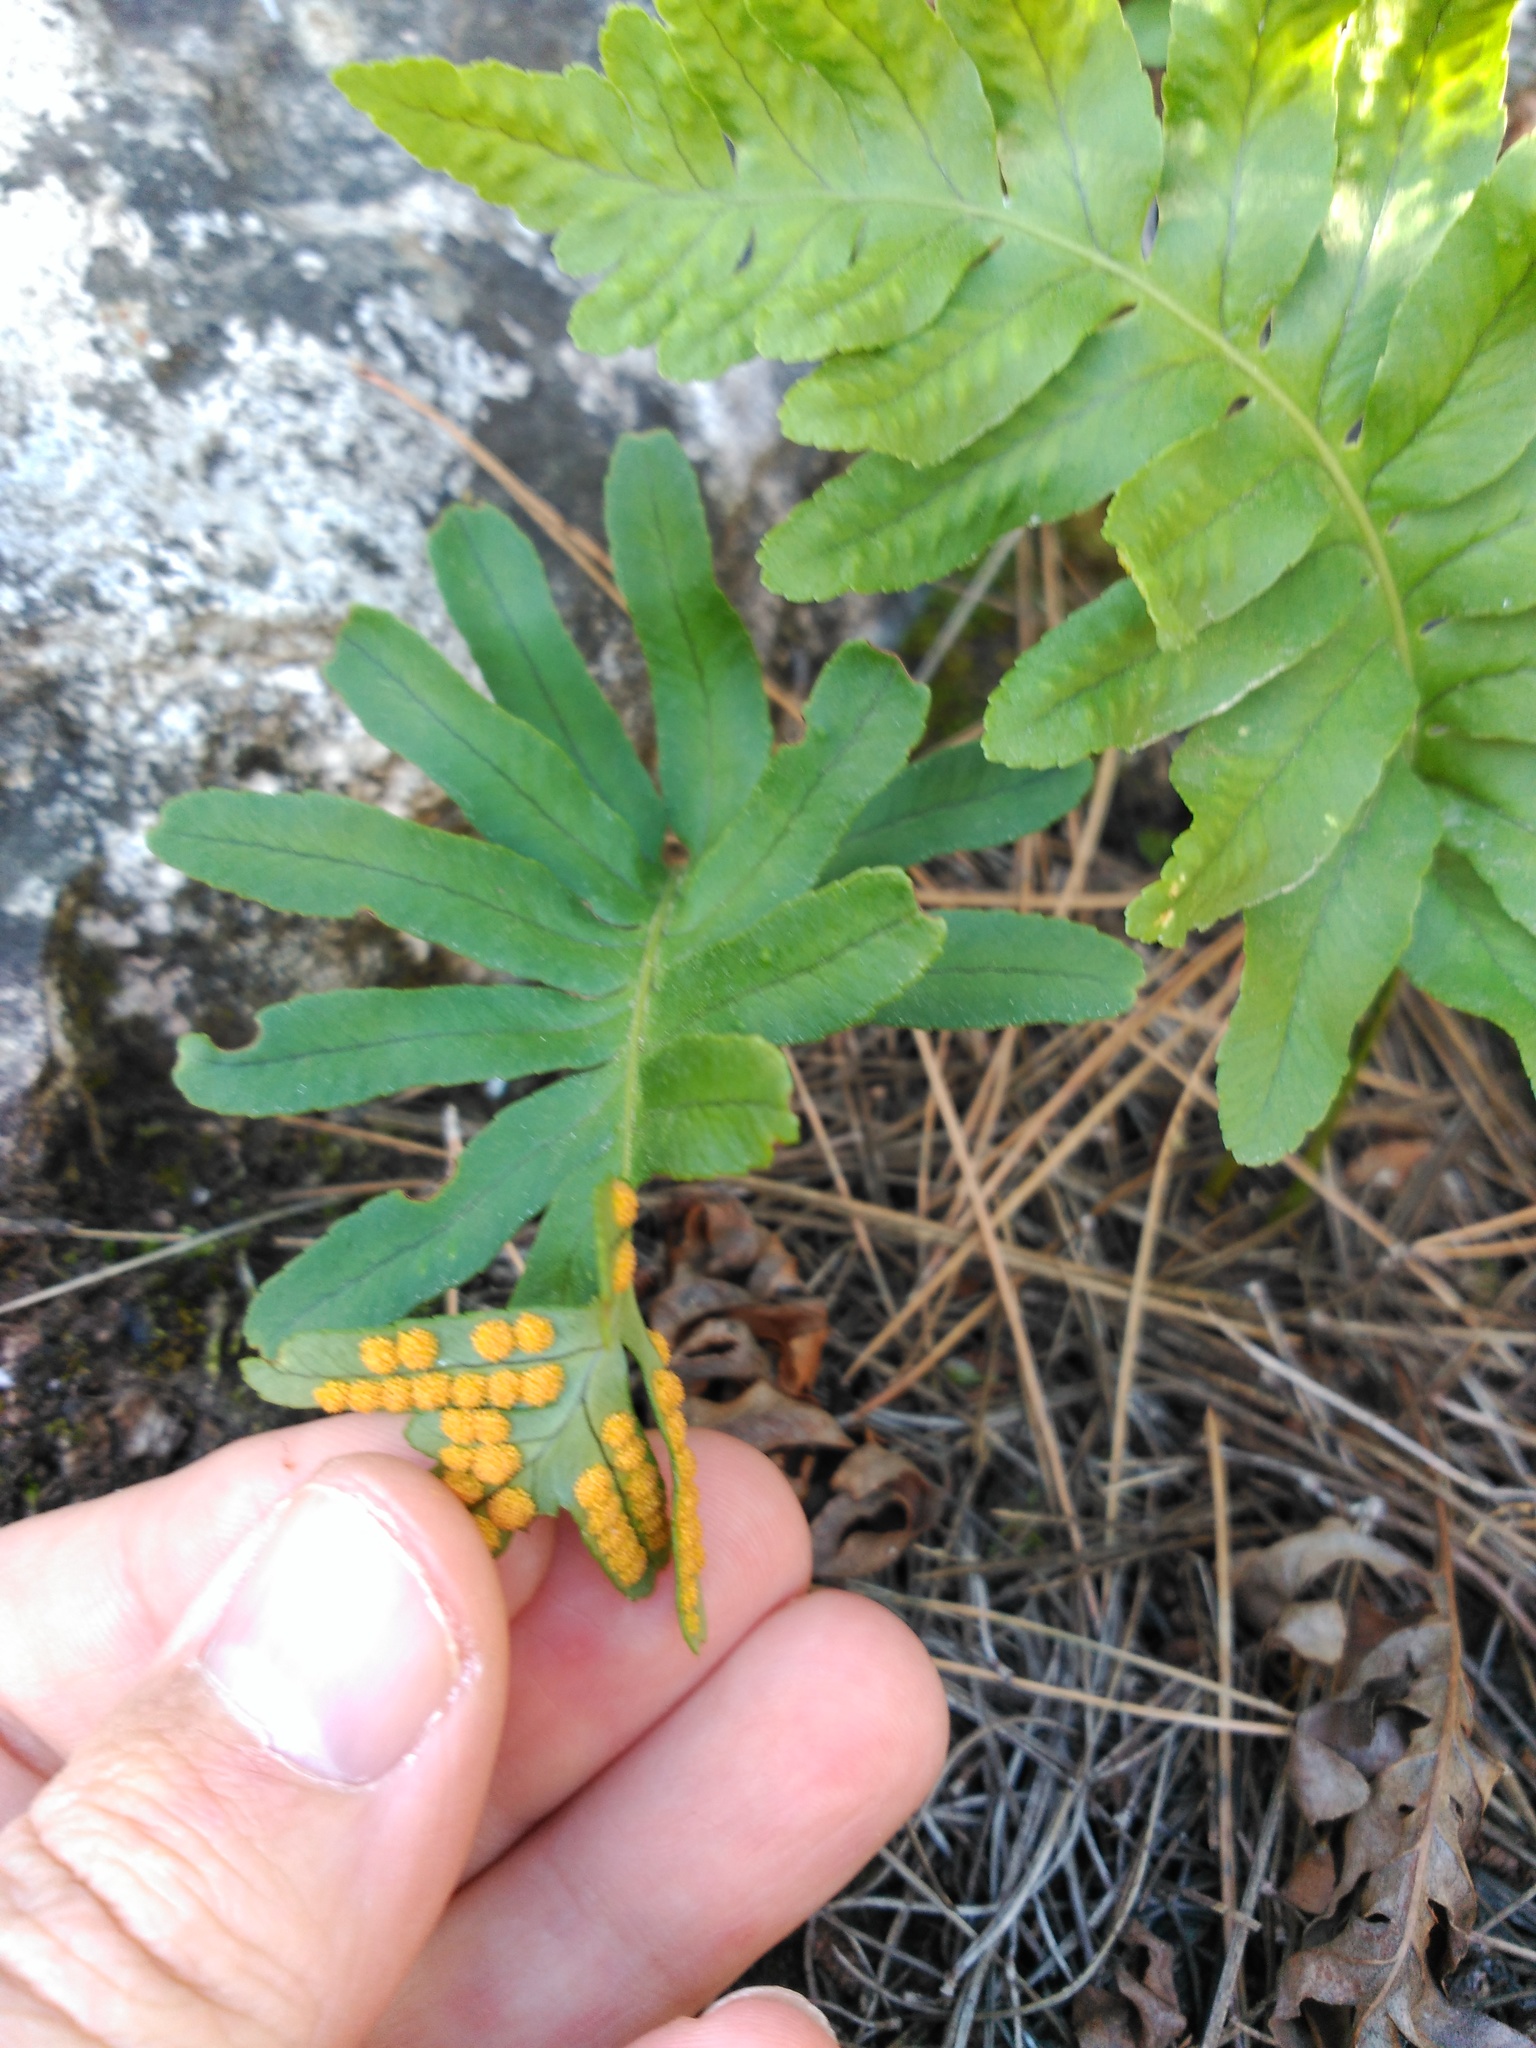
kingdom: Plantae
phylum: Tracheophyta
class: Polypodiopsida
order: Polypodiales
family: Polypodiaceae
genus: Polypodium
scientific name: Polypodium cambricum
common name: Southern polypody
